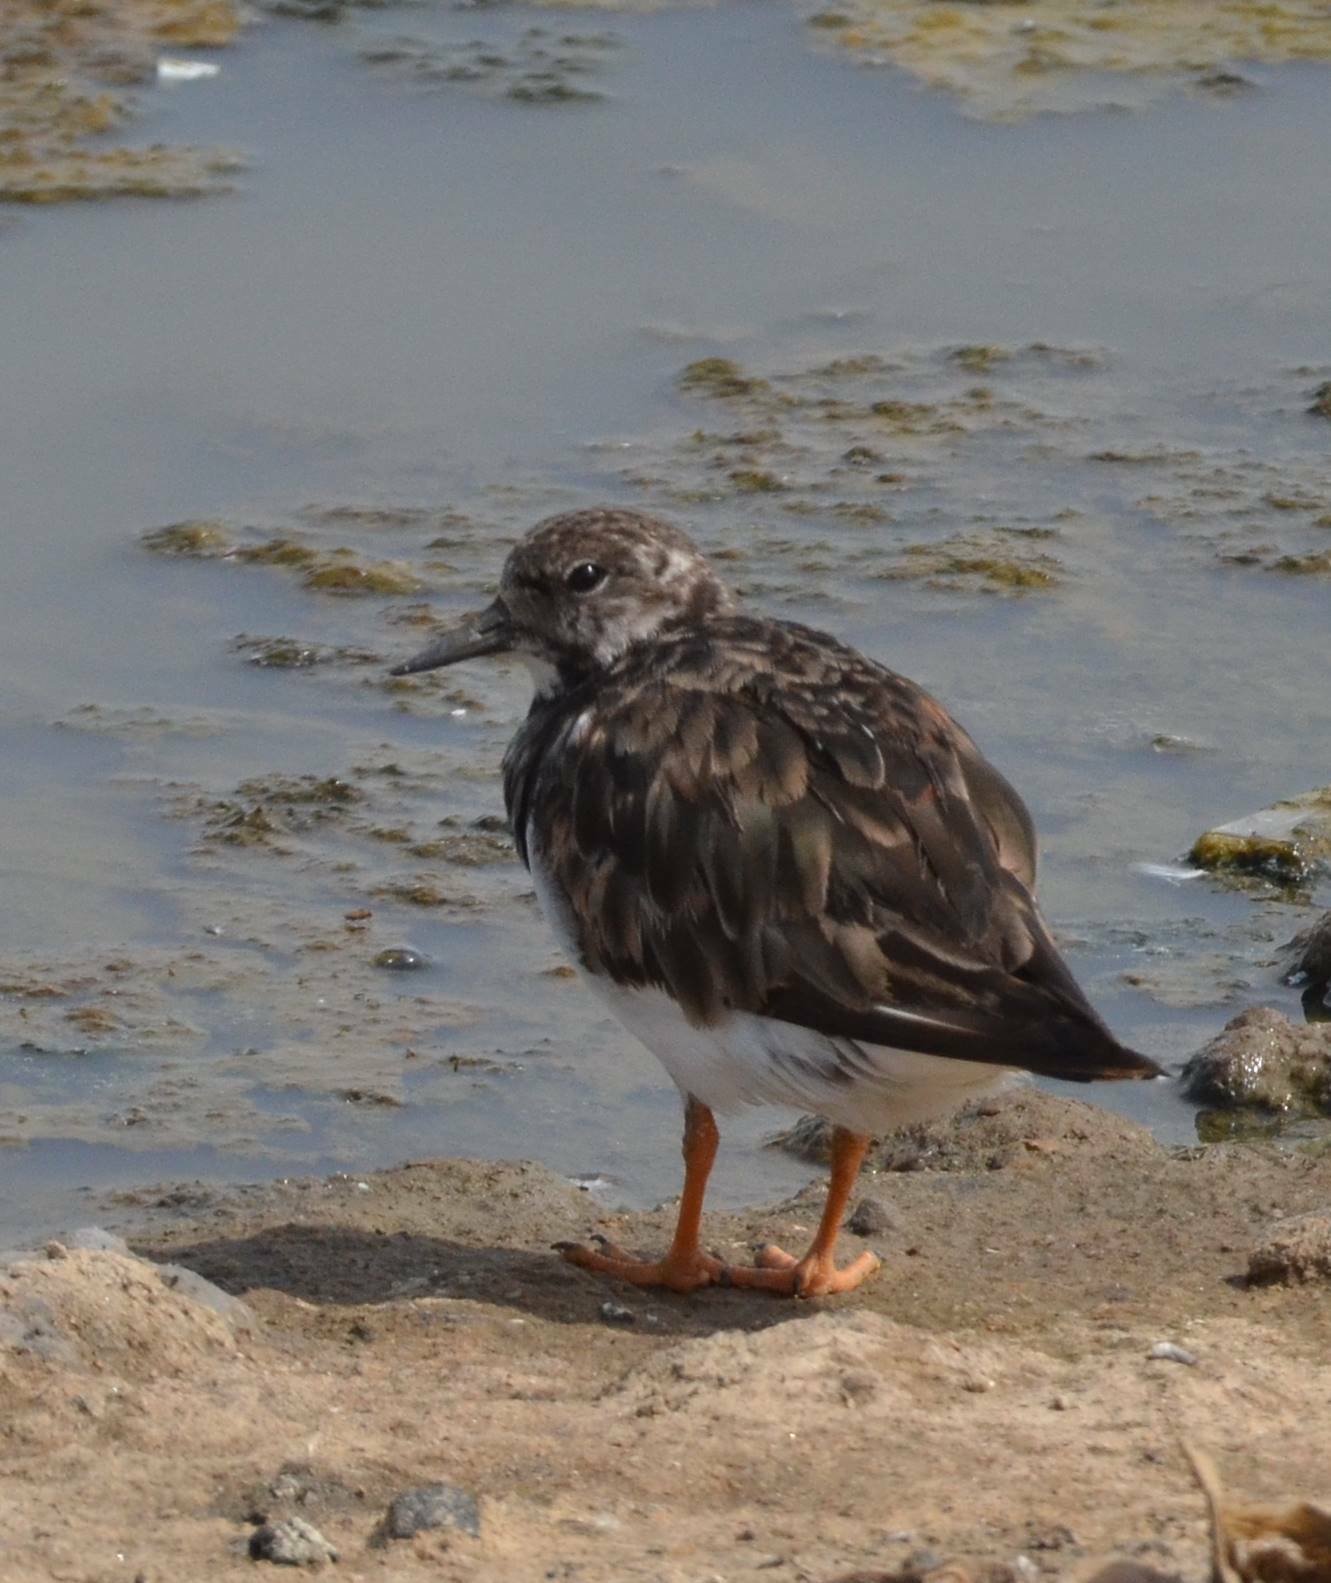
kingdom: Animalia
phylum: Chordata
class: Aves
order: Charadriiformes
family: Scolopacidae
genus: Arenaria
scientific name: Arenaria interpres
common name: Ruddy turnstone
